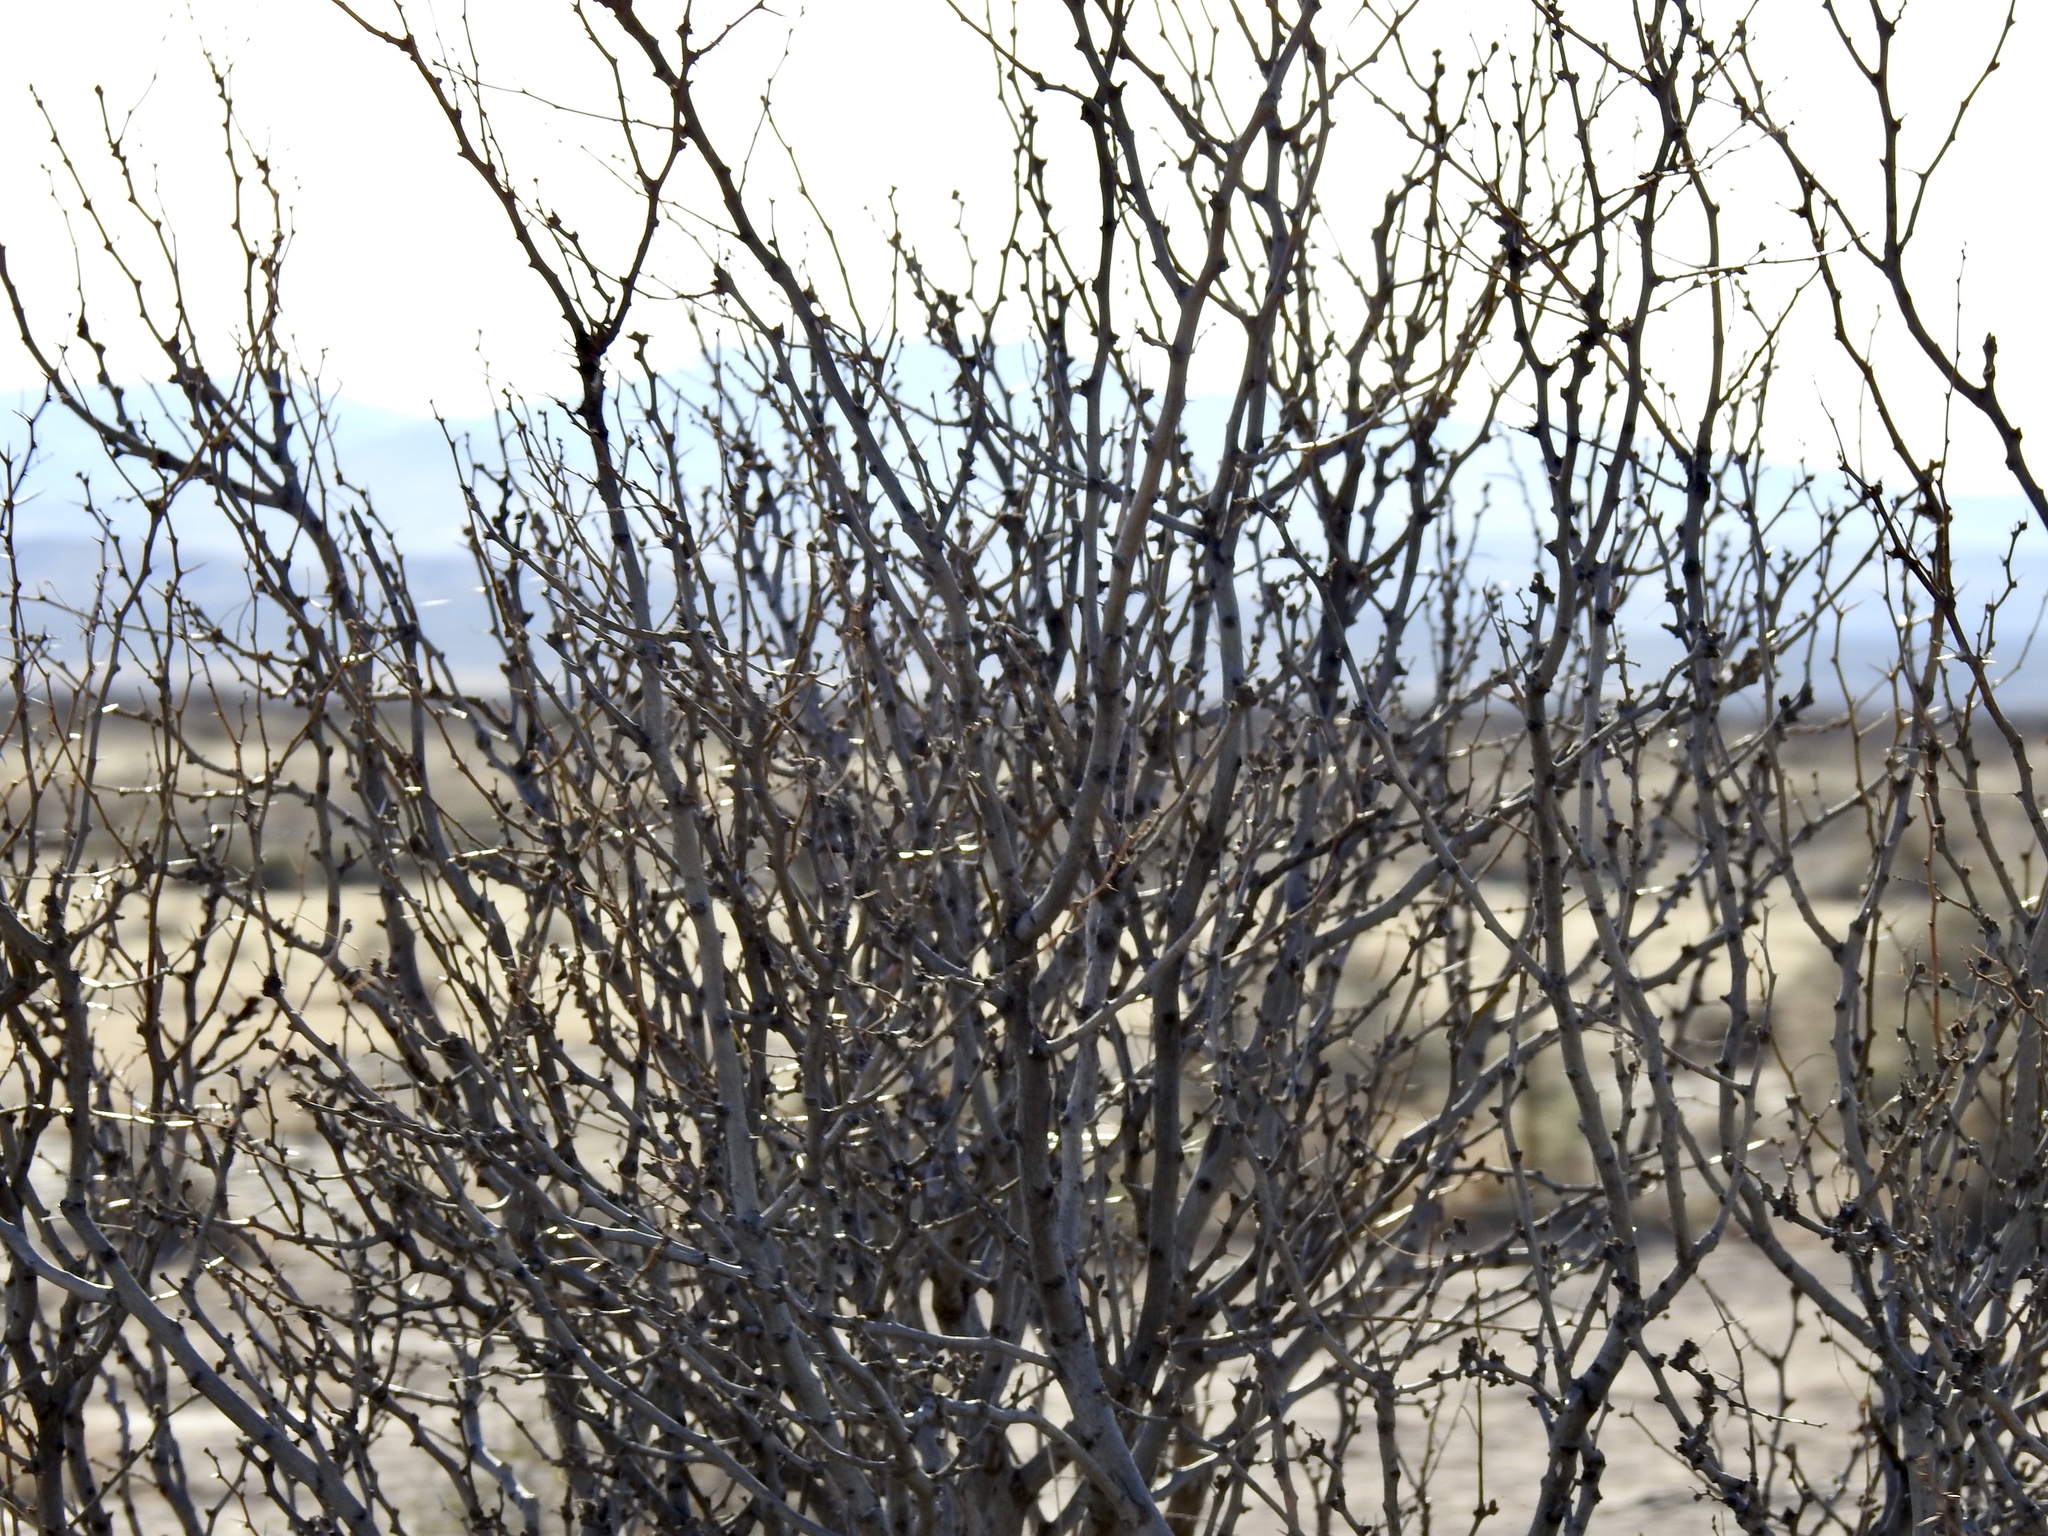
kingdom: Plantae
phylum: Tracheophyta
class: Magnoliopsida
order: Fabales
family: Fabaceae
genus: Prosopis
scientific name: Prosopis glandulosa
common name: Honey mesquite
